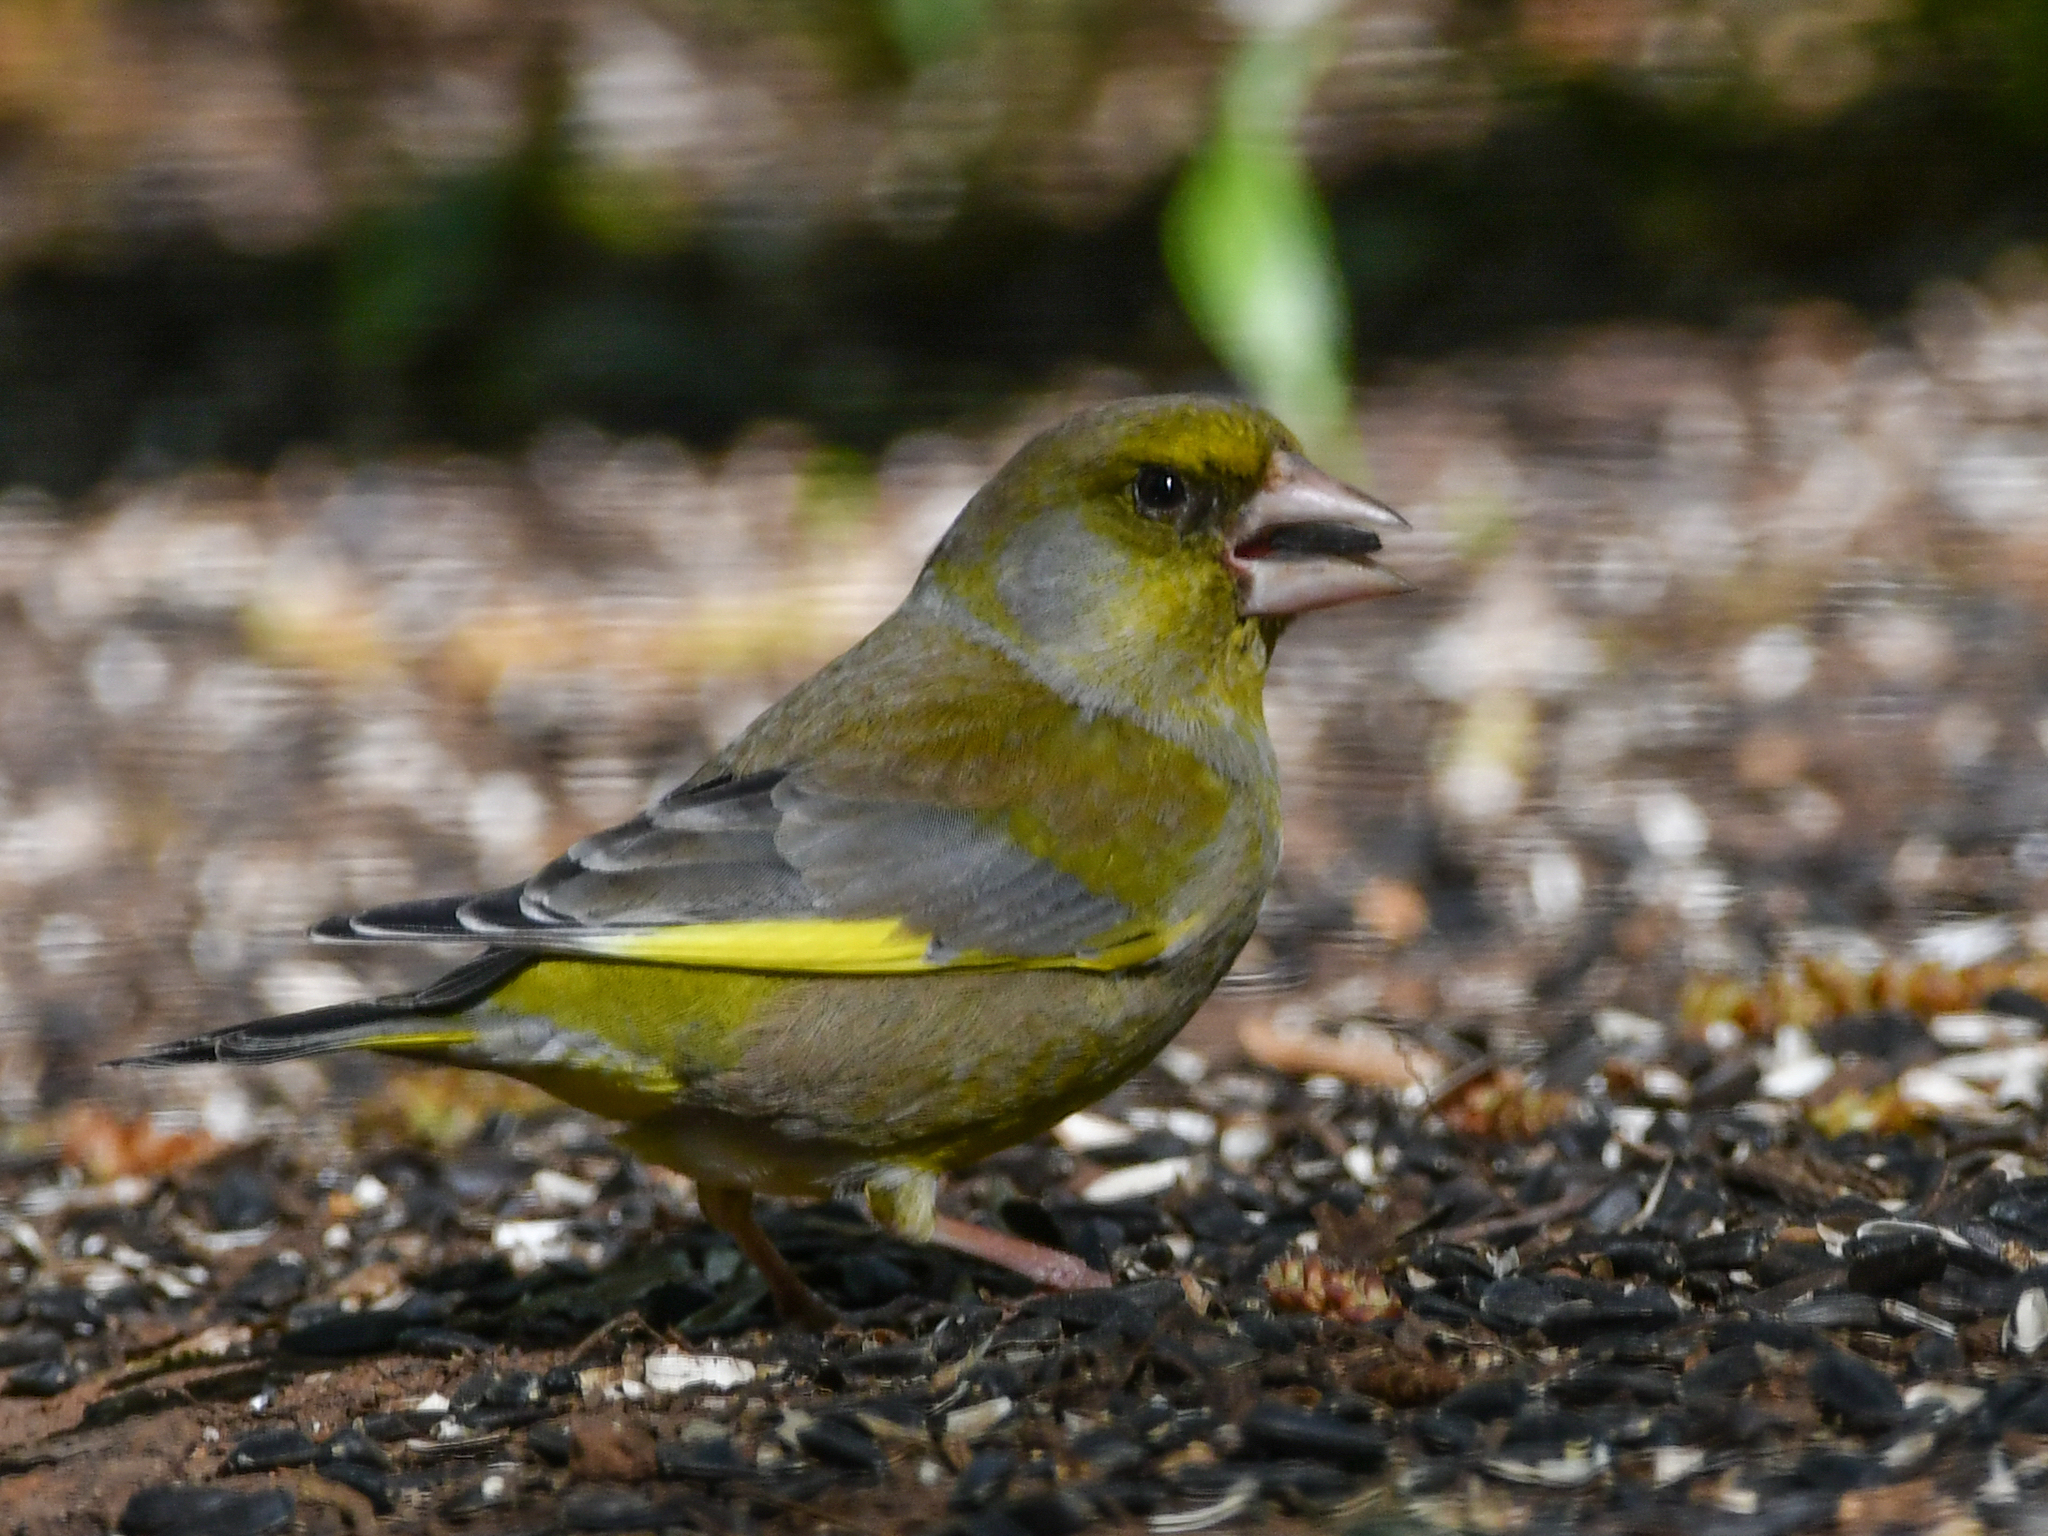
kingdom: Plantae
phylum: Tracheophyta
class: Liliopsida
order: Poales
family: Poaceae
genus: Chloris
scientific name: Chloris chloris
